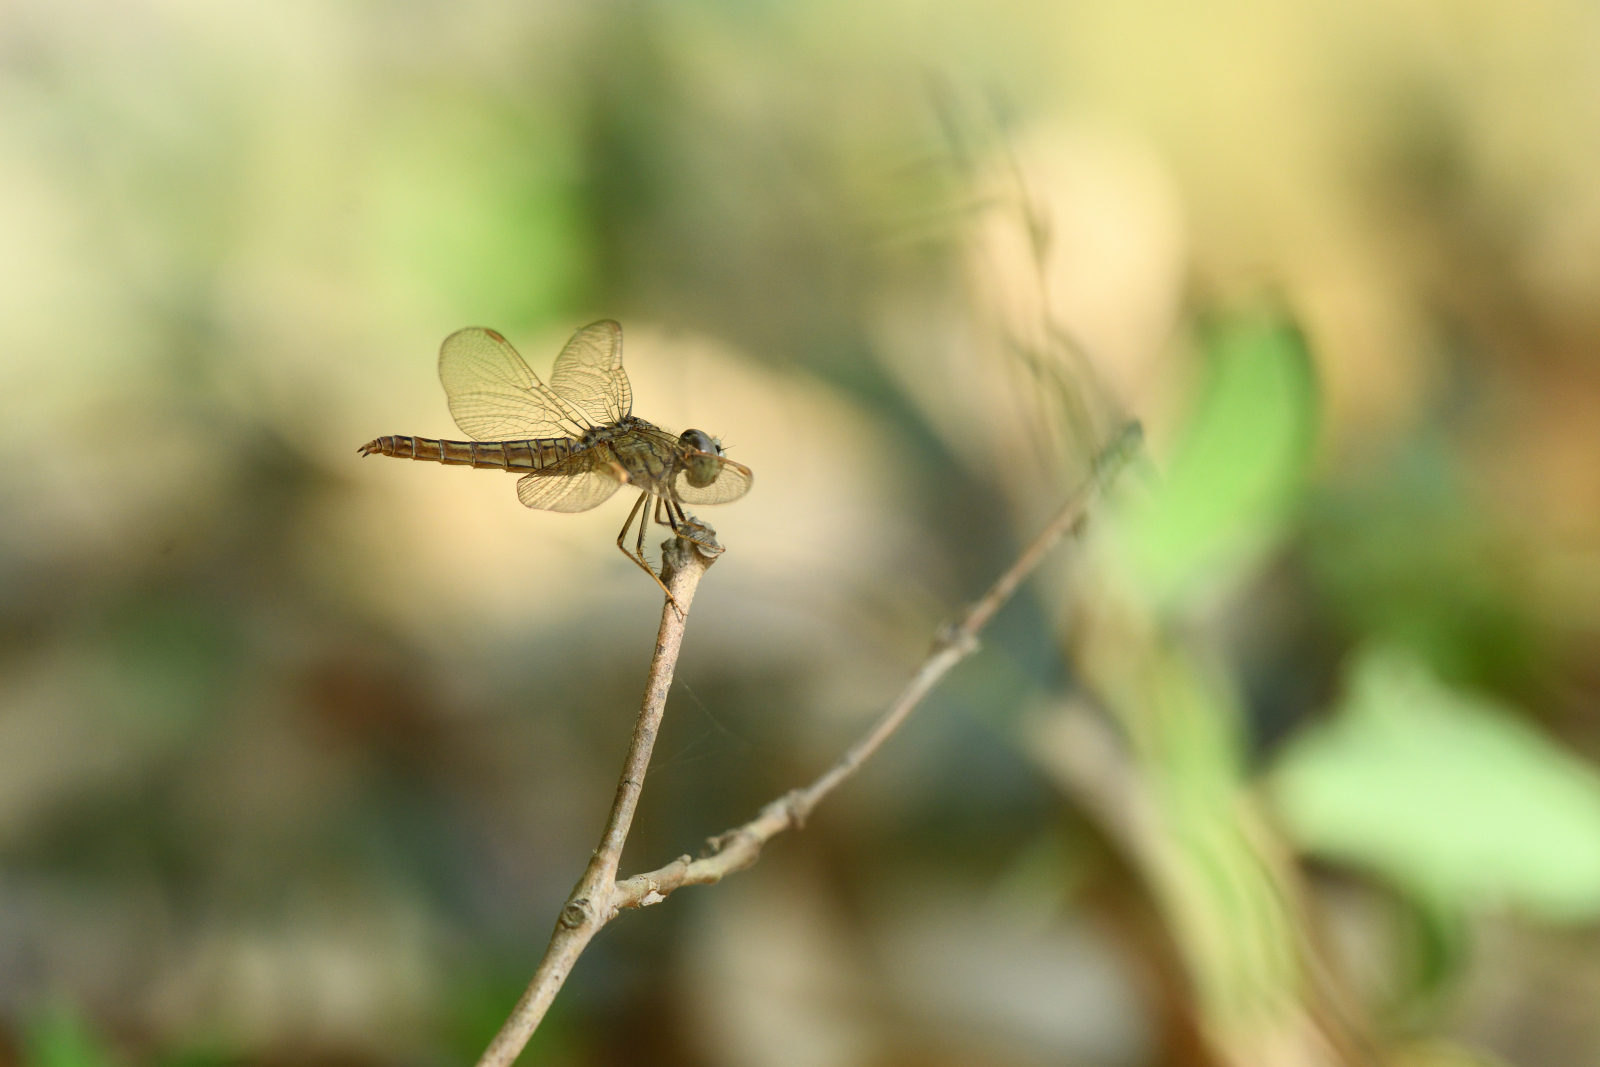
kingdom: Animalia
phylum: Arthropoda
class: Insecta
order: Odonata
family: Libellulidae
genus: Brachythemis
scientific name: Brachythemis contaminata
